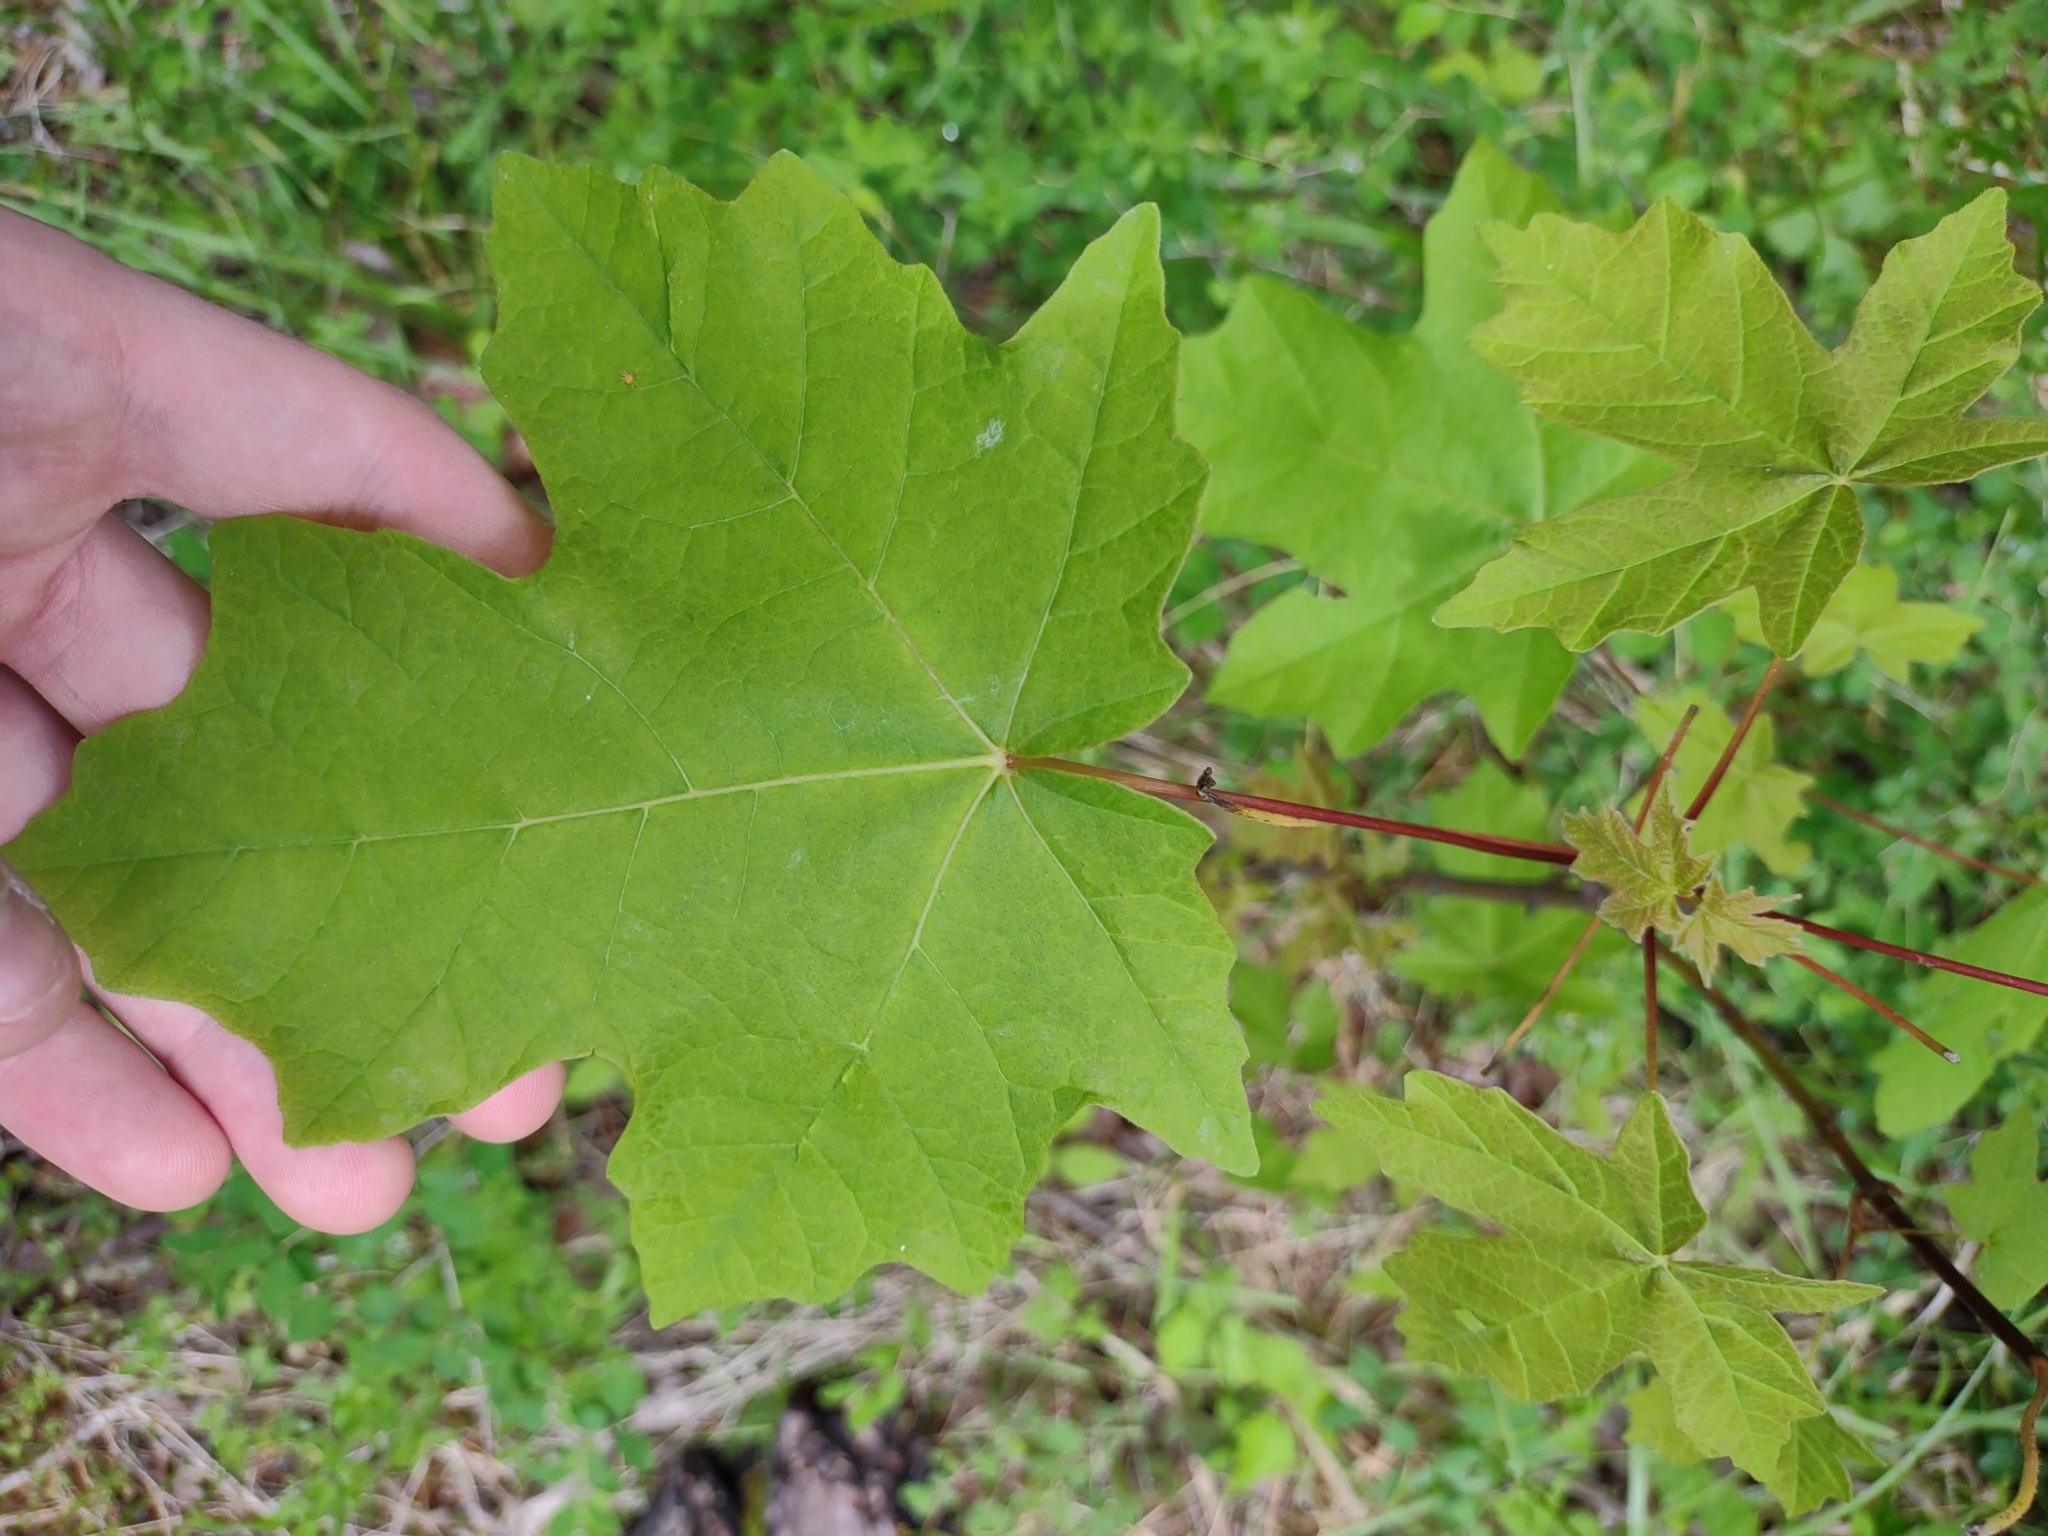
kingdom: Plantae
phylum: Tracheophyta
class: Magnoliopsida
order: Sapindales
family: Sapindaceae
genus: Acer
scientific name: Acer macrophyllum
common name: Oregon maple
